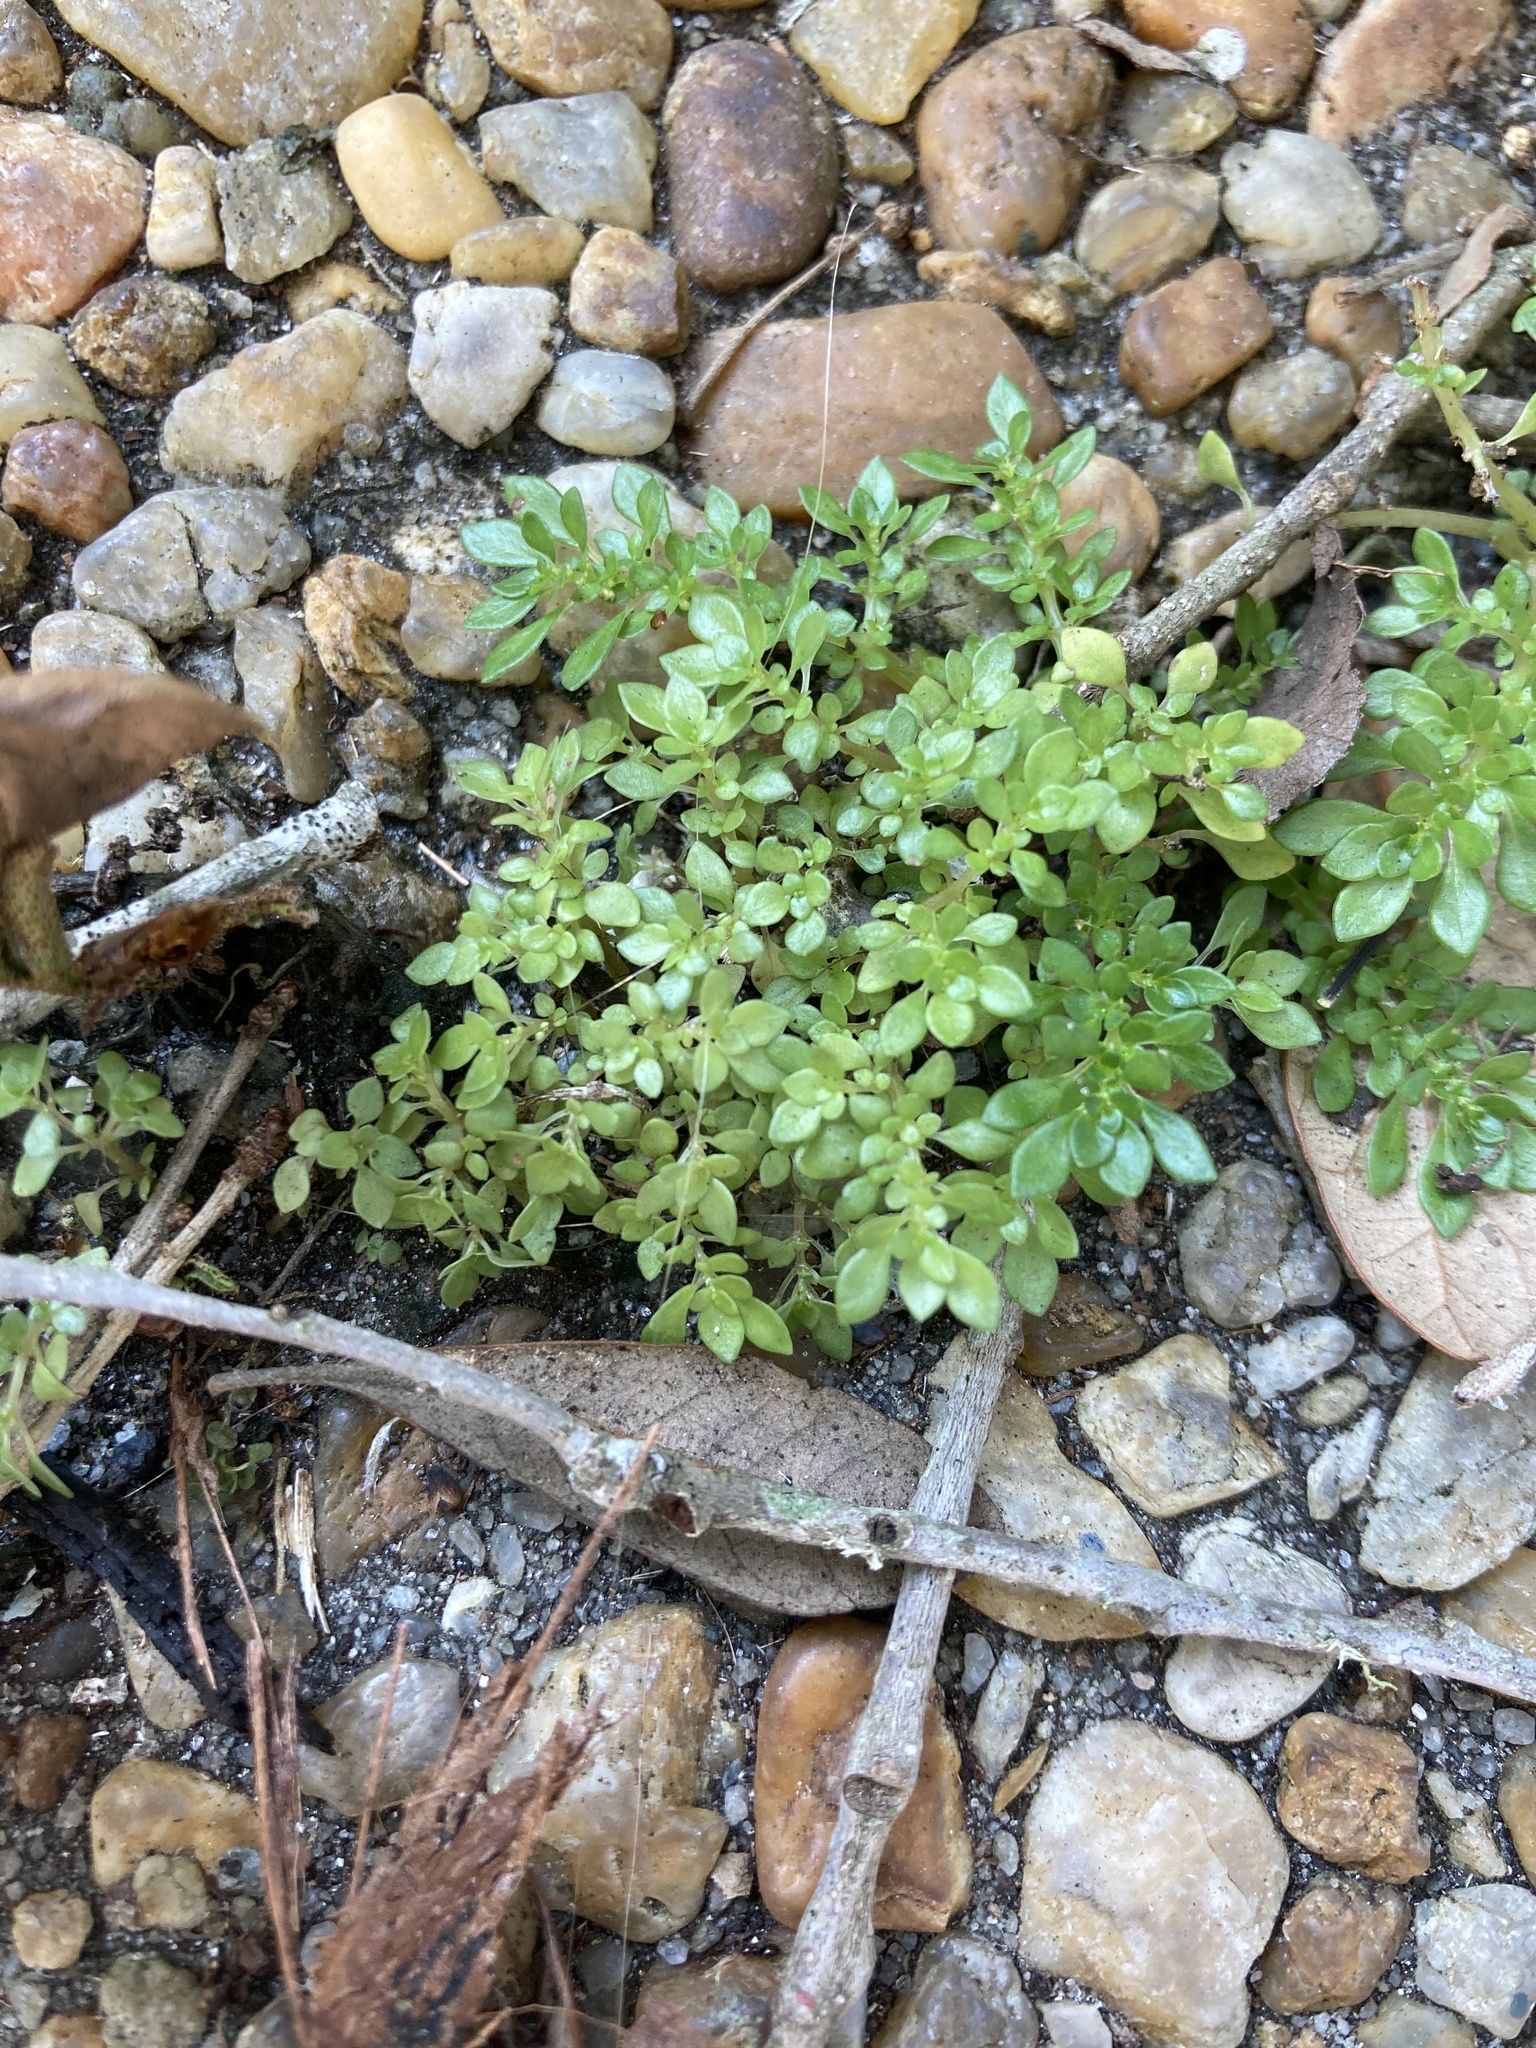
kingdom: Plantae
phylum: Tracheophyta
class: Magnoliopsida
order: Rosales
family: Urticaceae
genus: Pilea
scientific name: Pilea microphylla
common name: Artillery-plant
